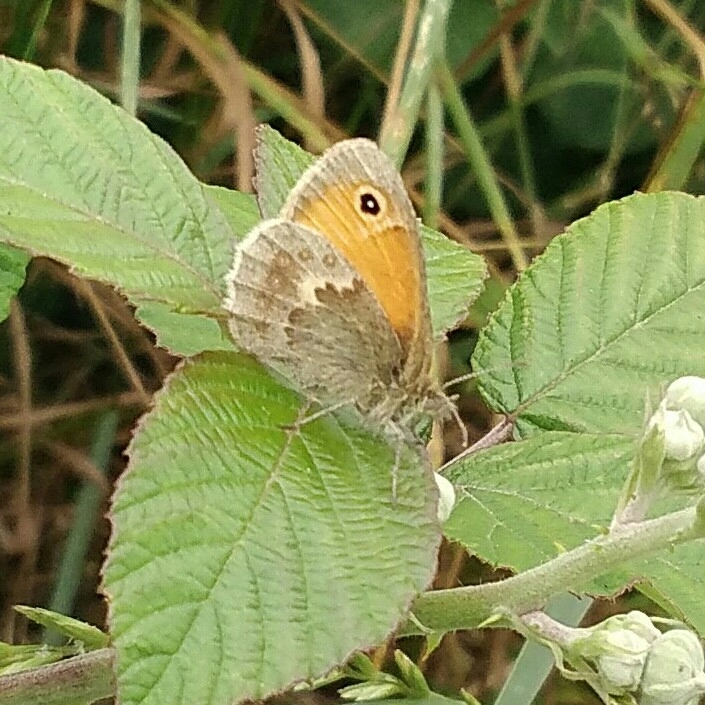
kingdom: Animalia
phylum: Arthropoda
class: Insecta
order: Lepidoptera
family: Nymphalidae
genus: Coenonympha
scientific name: Coenonympha pamphilus
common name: Small heath
